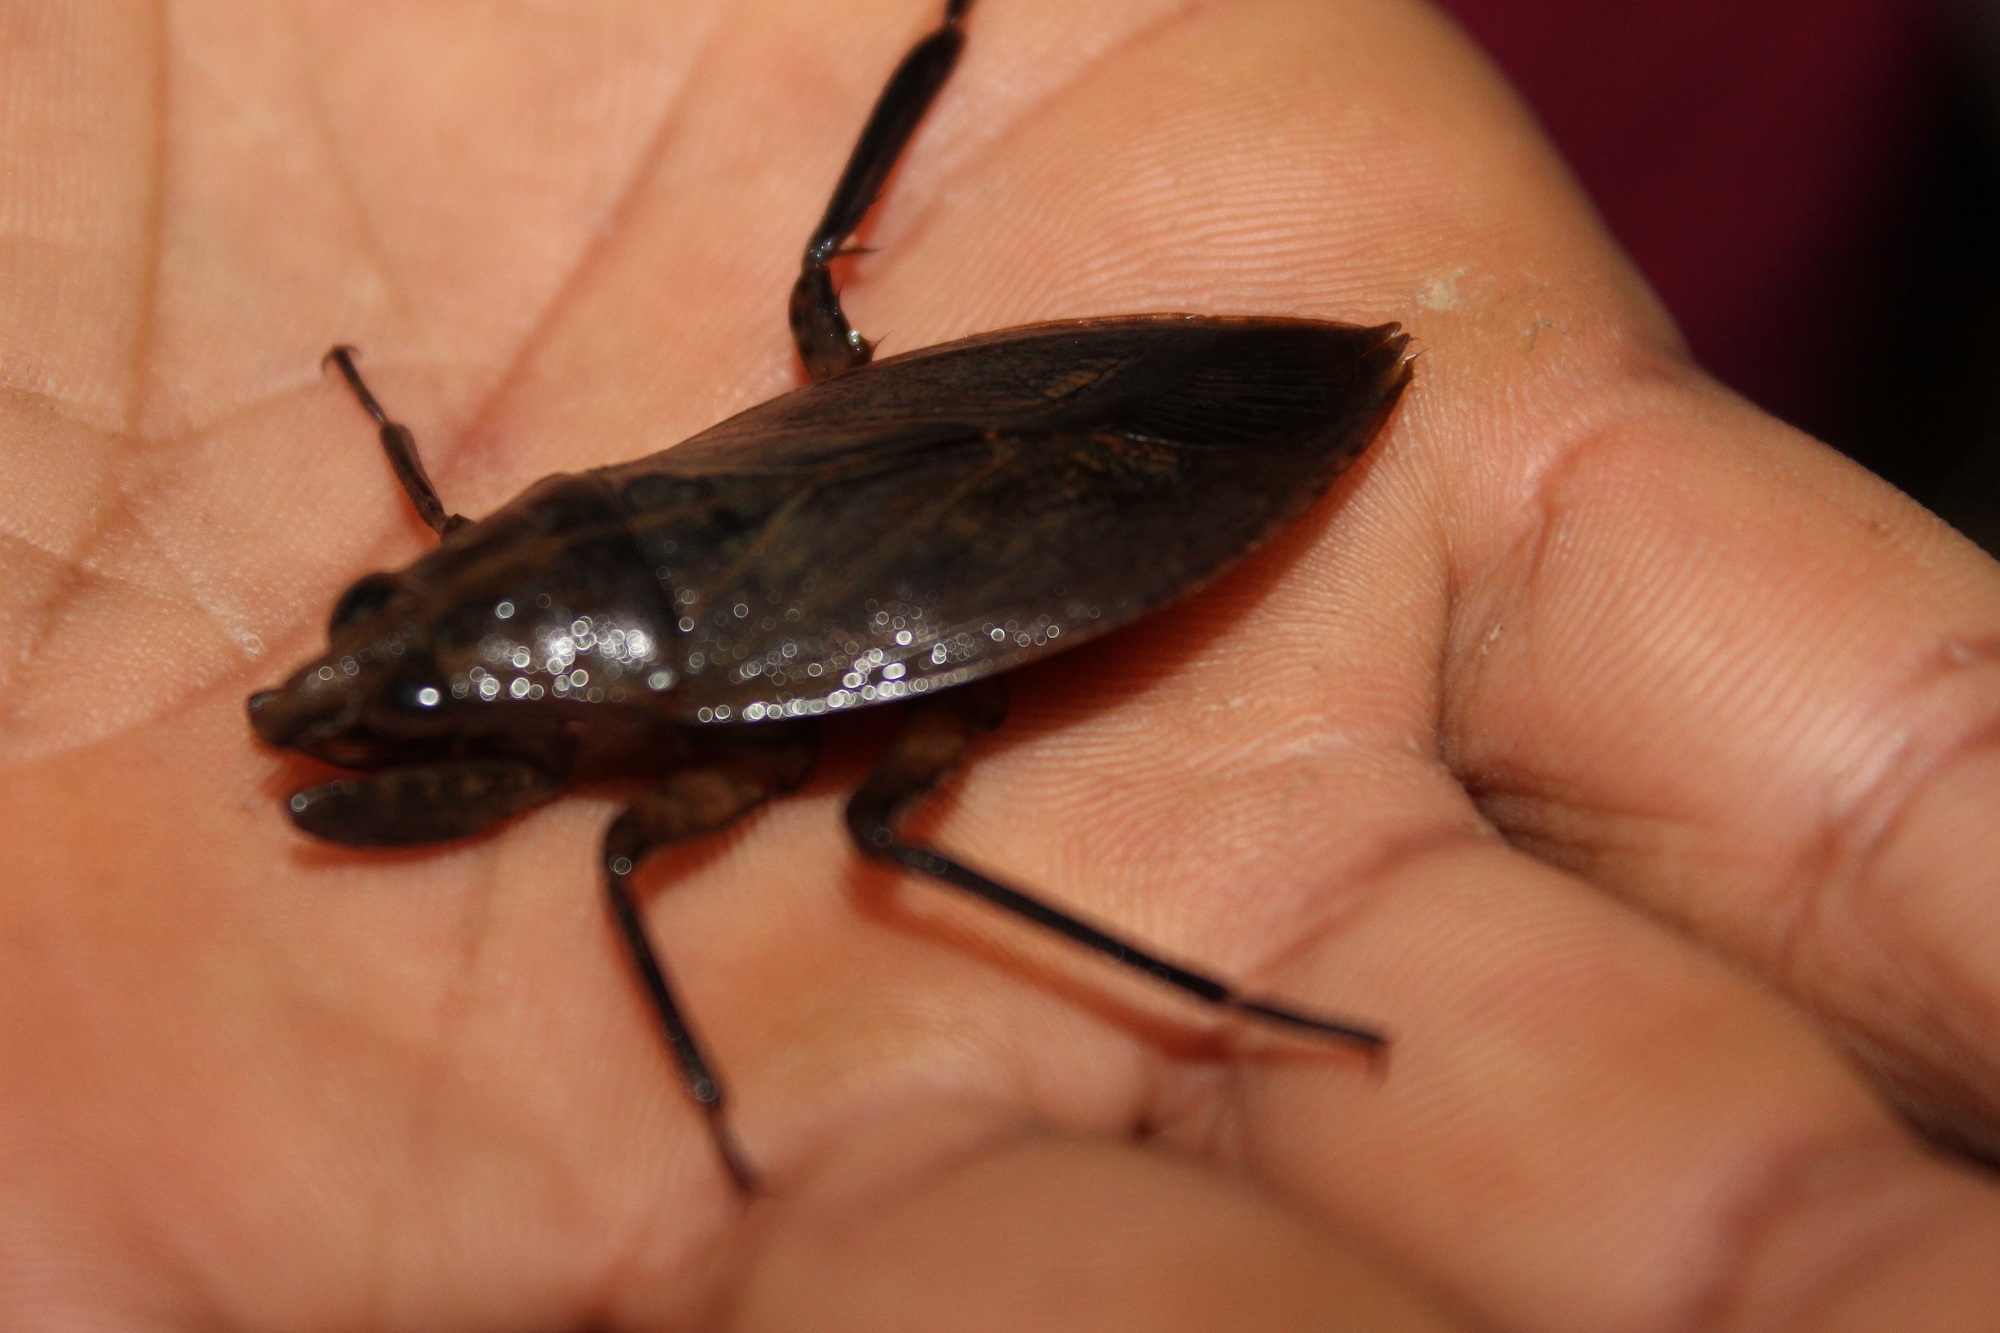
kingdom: Animalia
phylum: Arthropoda
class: Insecta
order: Hemiptera
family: Belostomatidae
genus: Belostoma
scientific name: Belostoma
